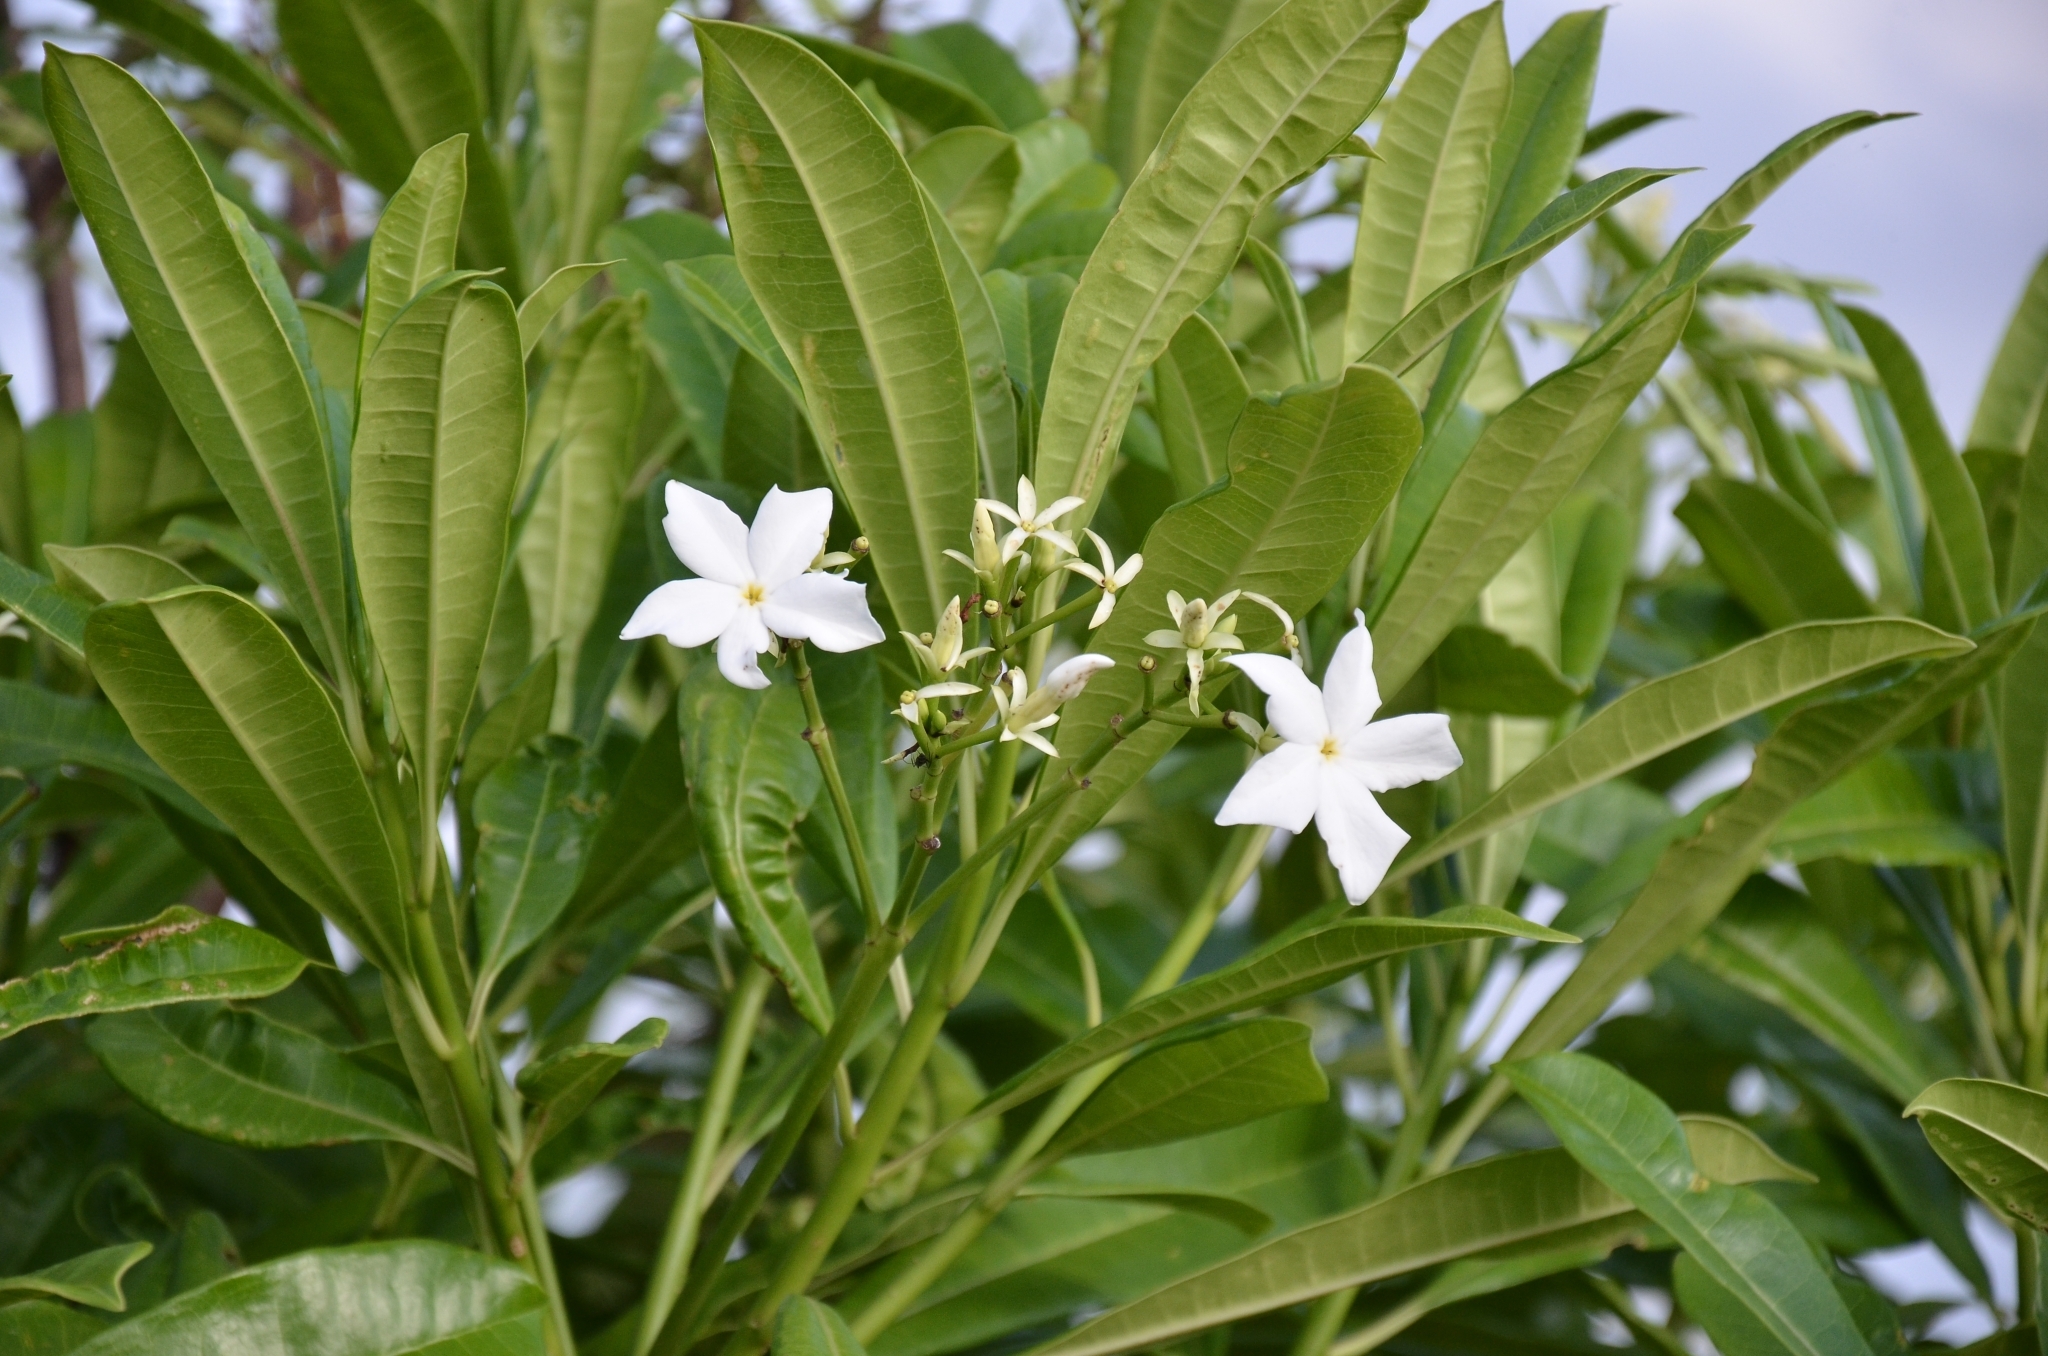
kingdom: Plantae
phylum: Tracheophyta
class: Magnoliopsida
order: Gentianales
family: Apocynaceae
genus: Cerbera
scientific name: Cerbera odollam
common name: Pong-pong
